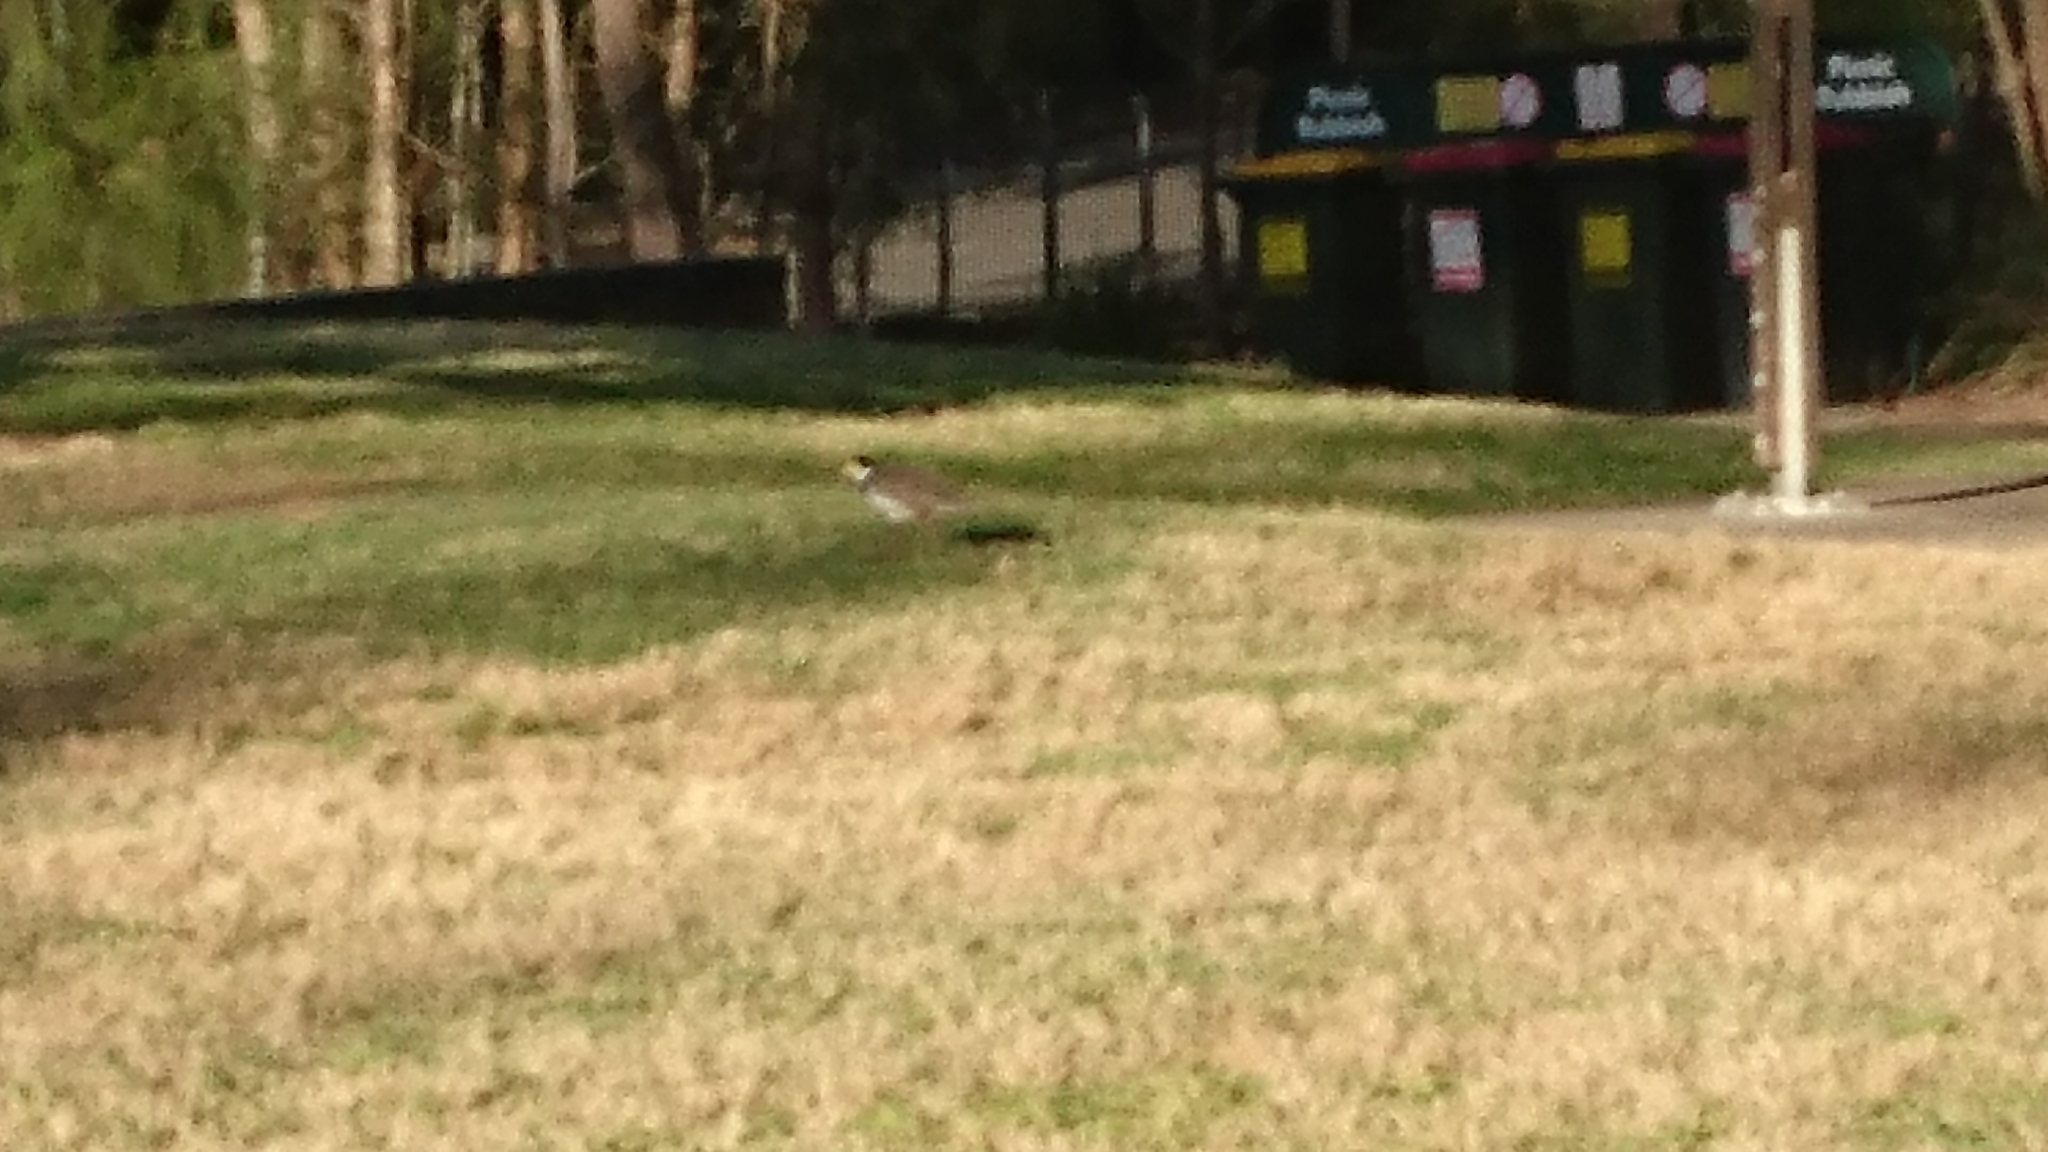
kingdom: Animalia
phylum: Chordata
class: Aves
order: Charadriiformes
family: Charadriidae
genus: Vanellus
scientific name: Vanellus miles
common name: Masked lapwing
